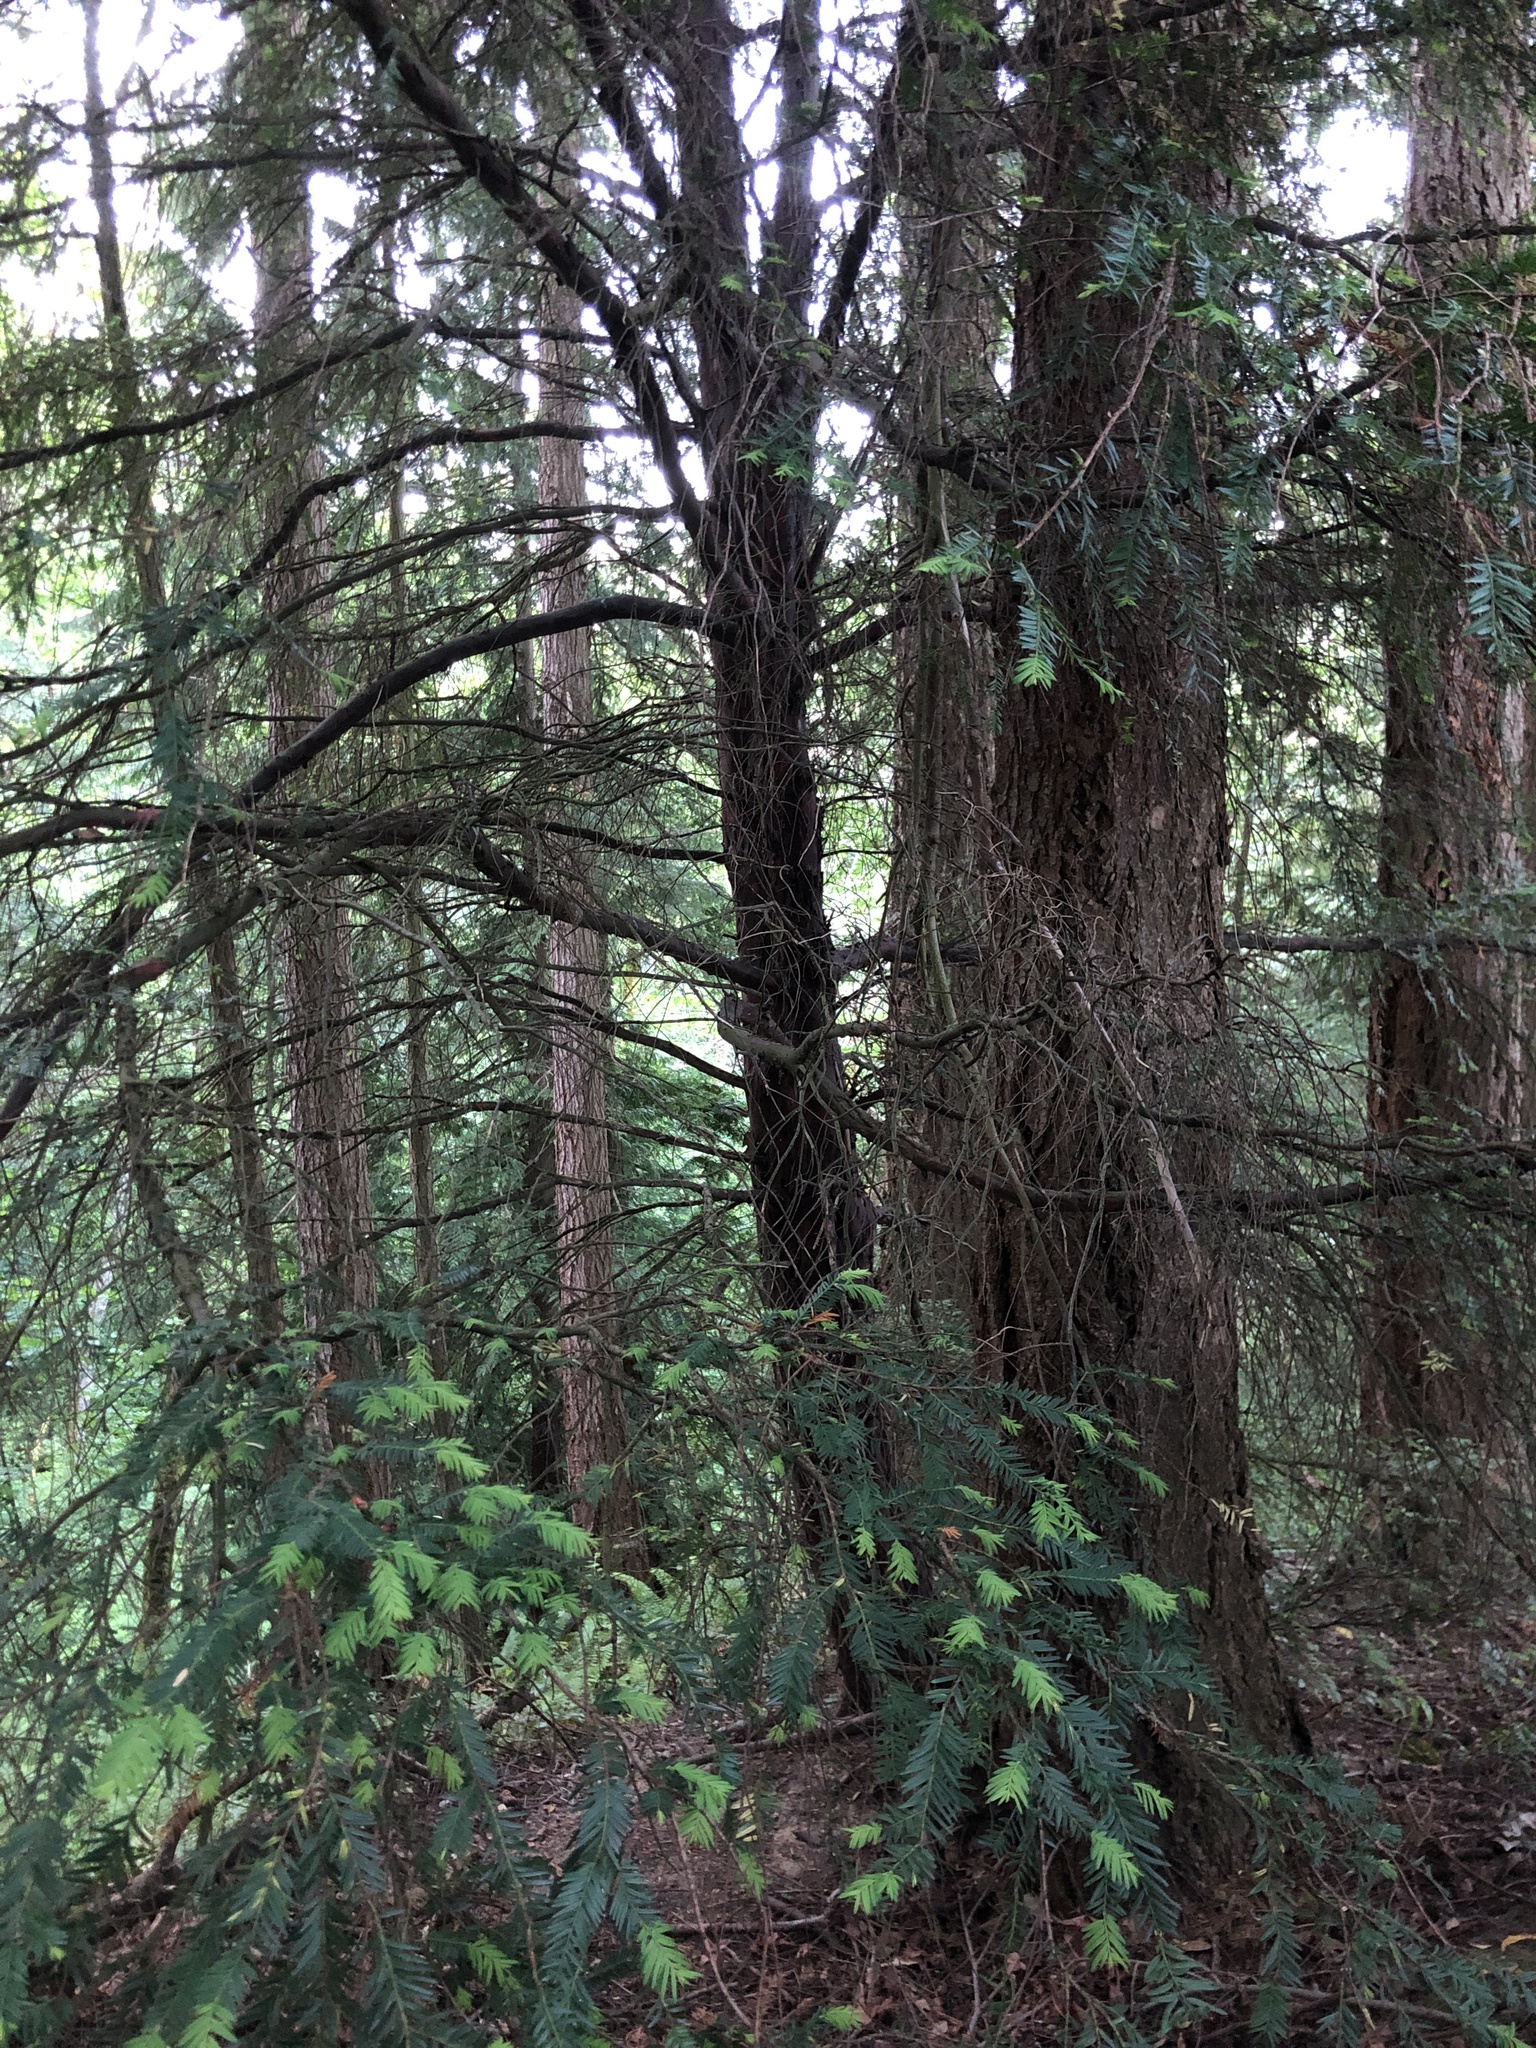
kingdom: Plantae
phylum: Tracheophyta
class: Pinopsida
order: Pinales
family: Taxaceae
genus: Taxus
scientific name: Taxus brevifolia
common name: Pacific yew
